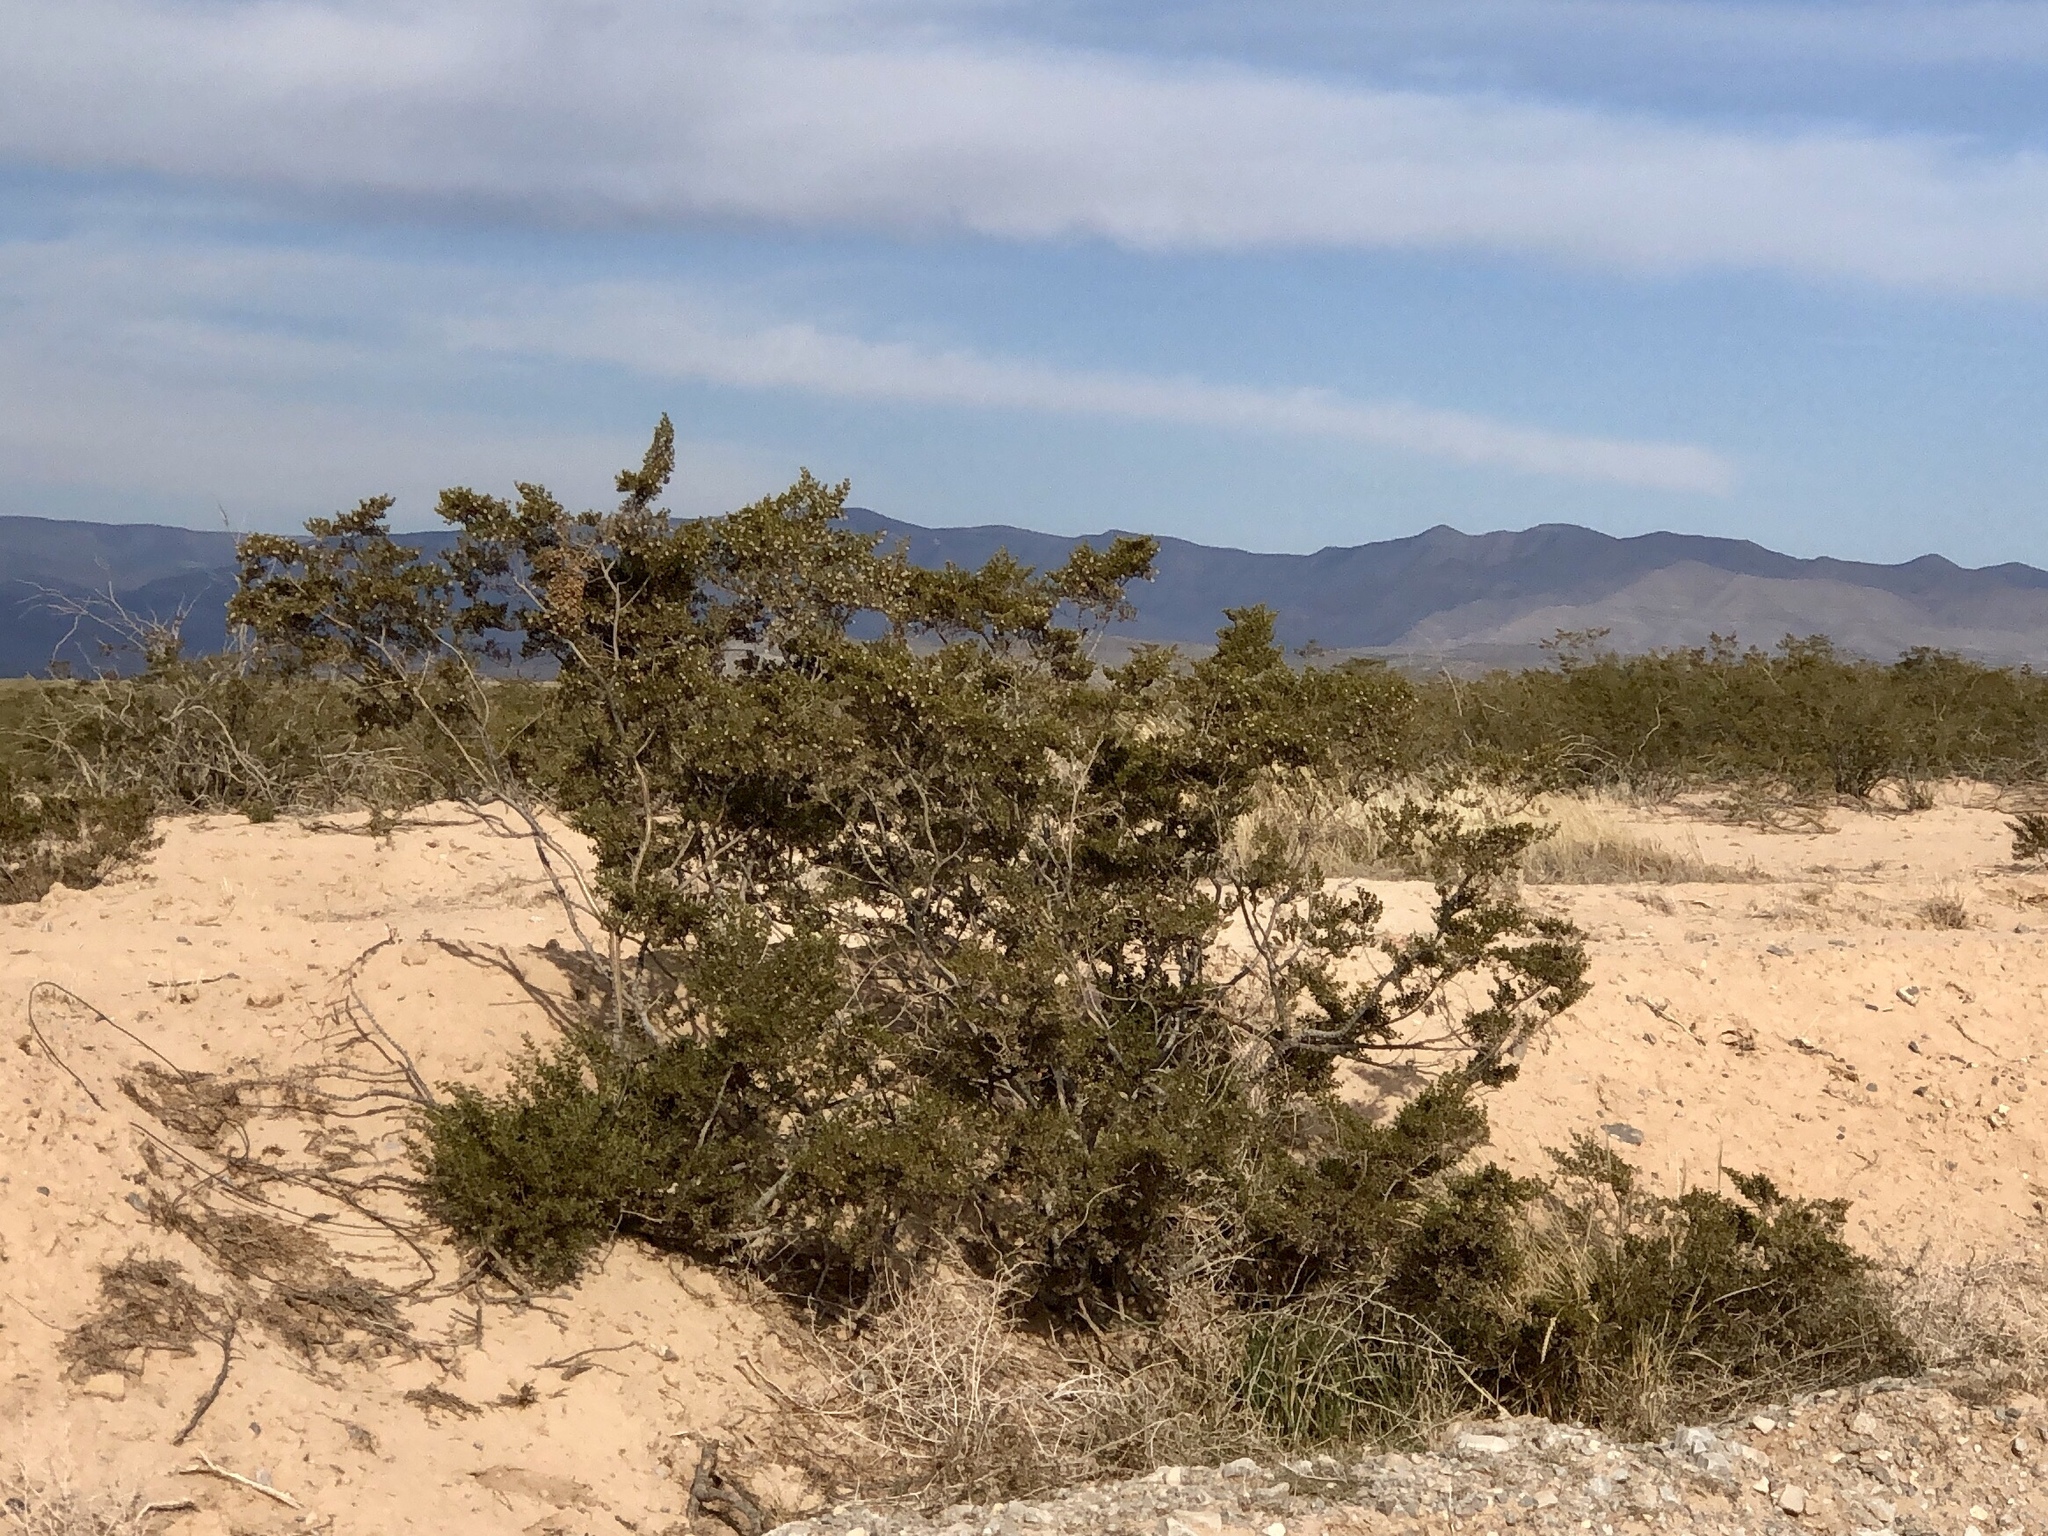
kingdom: Plantae
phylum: Tracheophyta
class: Magnoliopsida
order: Zygophyllales
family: Zygophyllaceae
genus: Larrea
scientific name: Larrea tridentata
